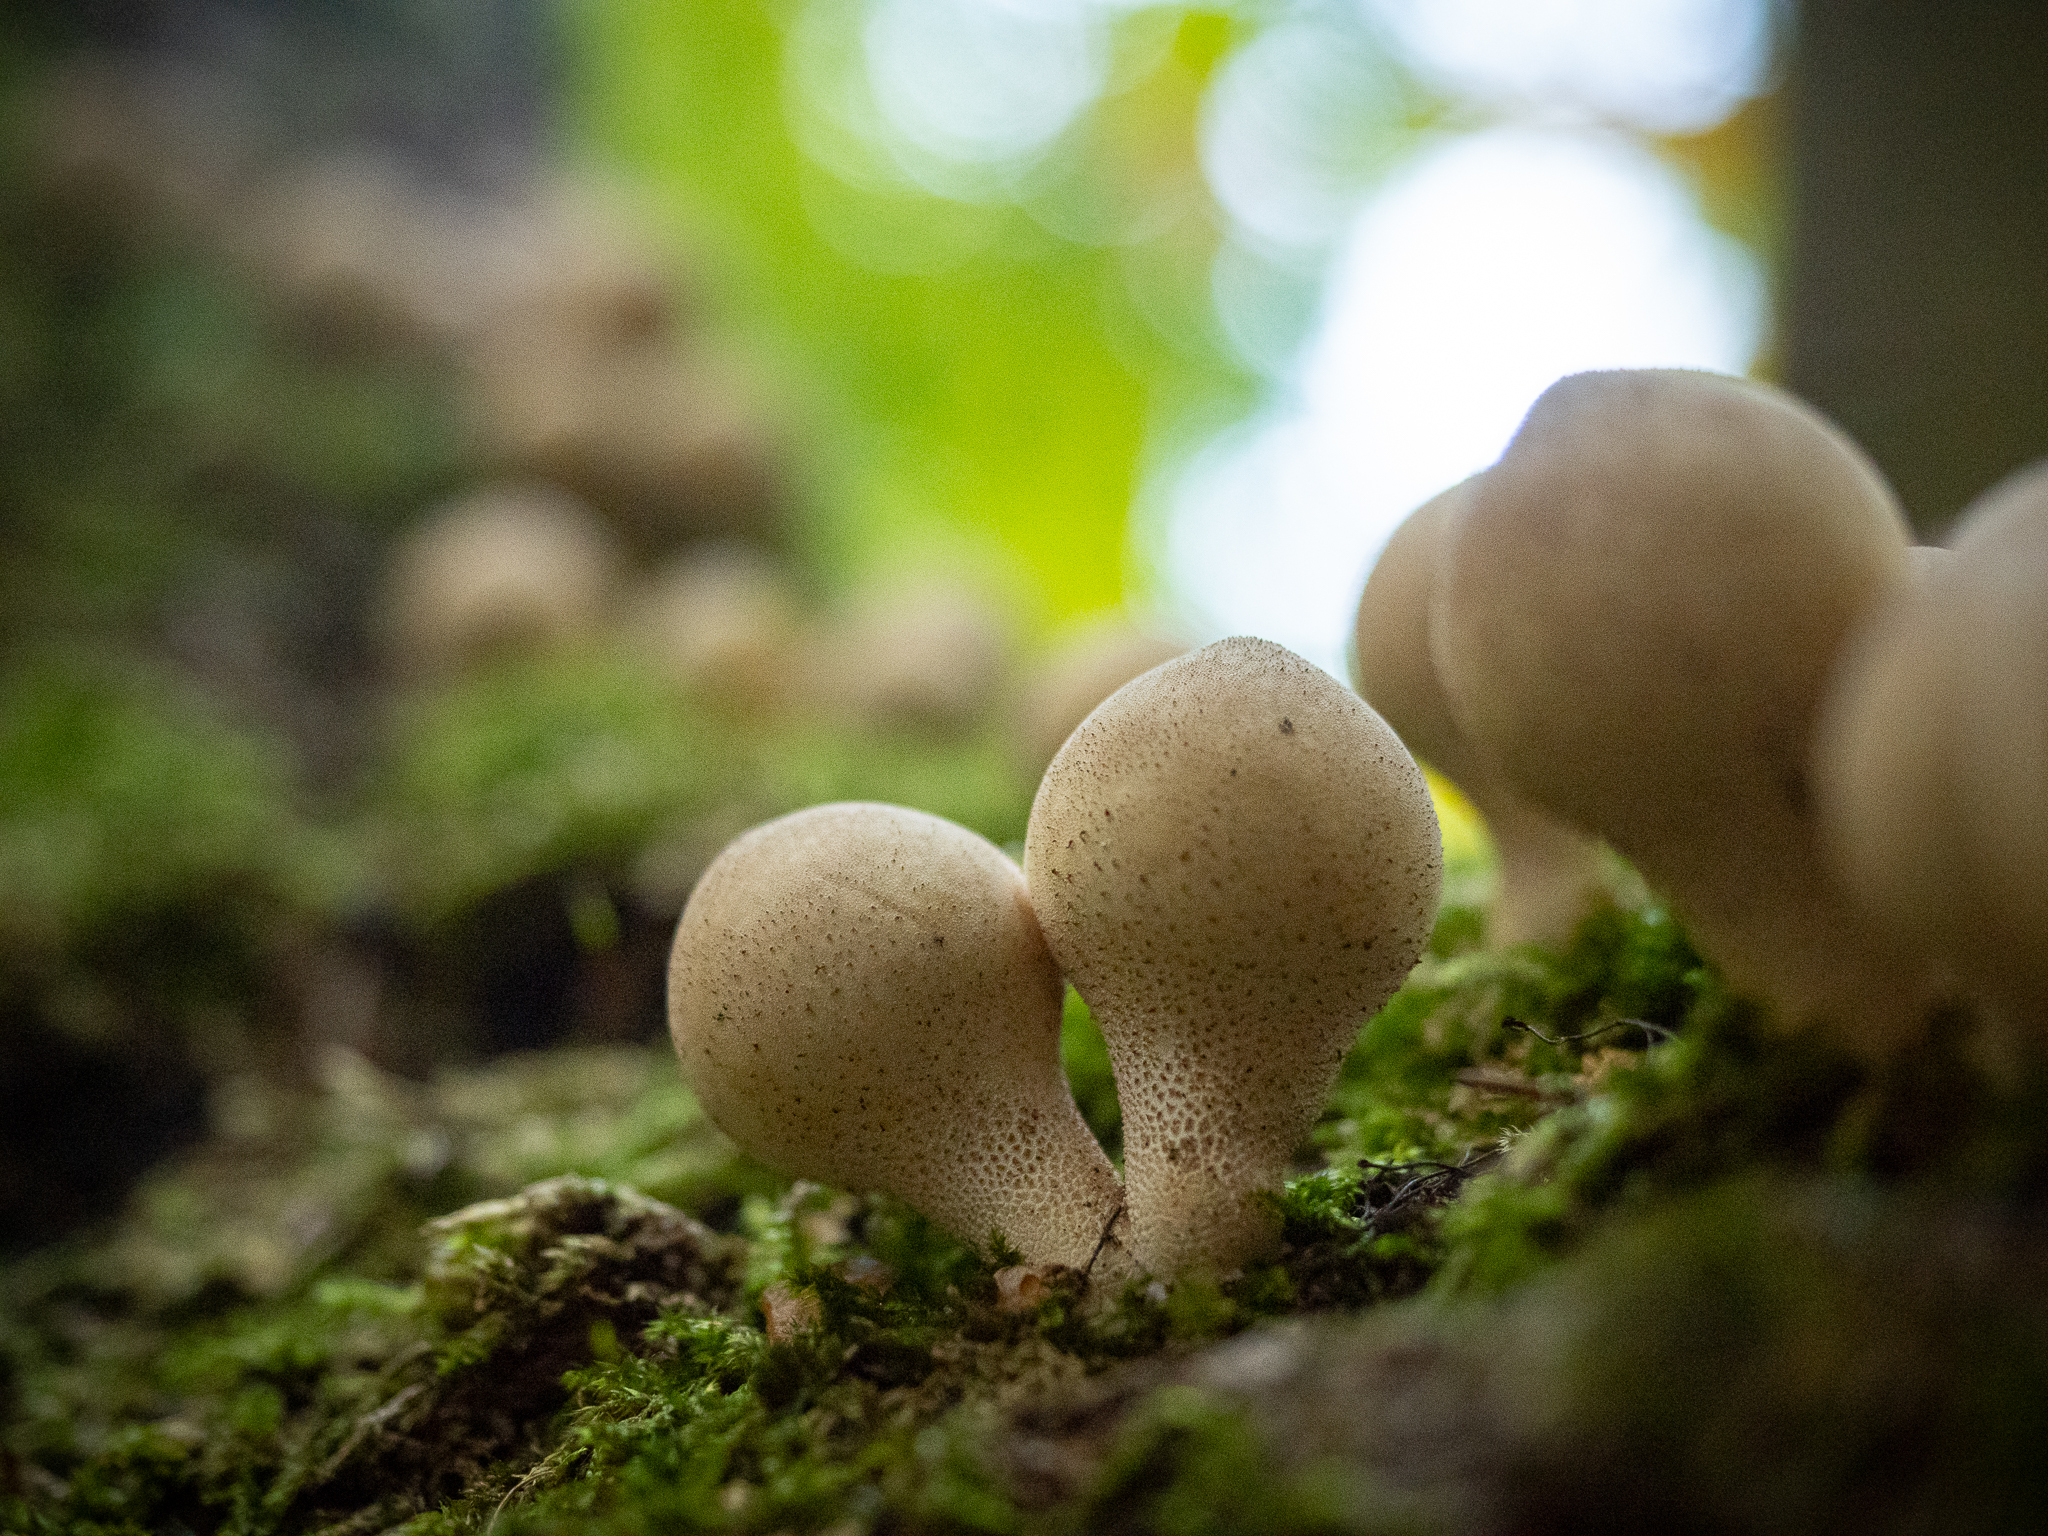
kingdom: Fungi
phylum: Basidiomycota
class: Agaricomycetes
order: Agaricales
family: Lycoperdaceae
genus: Apioperdon
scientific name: Apioperdon pyriforme
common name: Pear-shaped puffball
